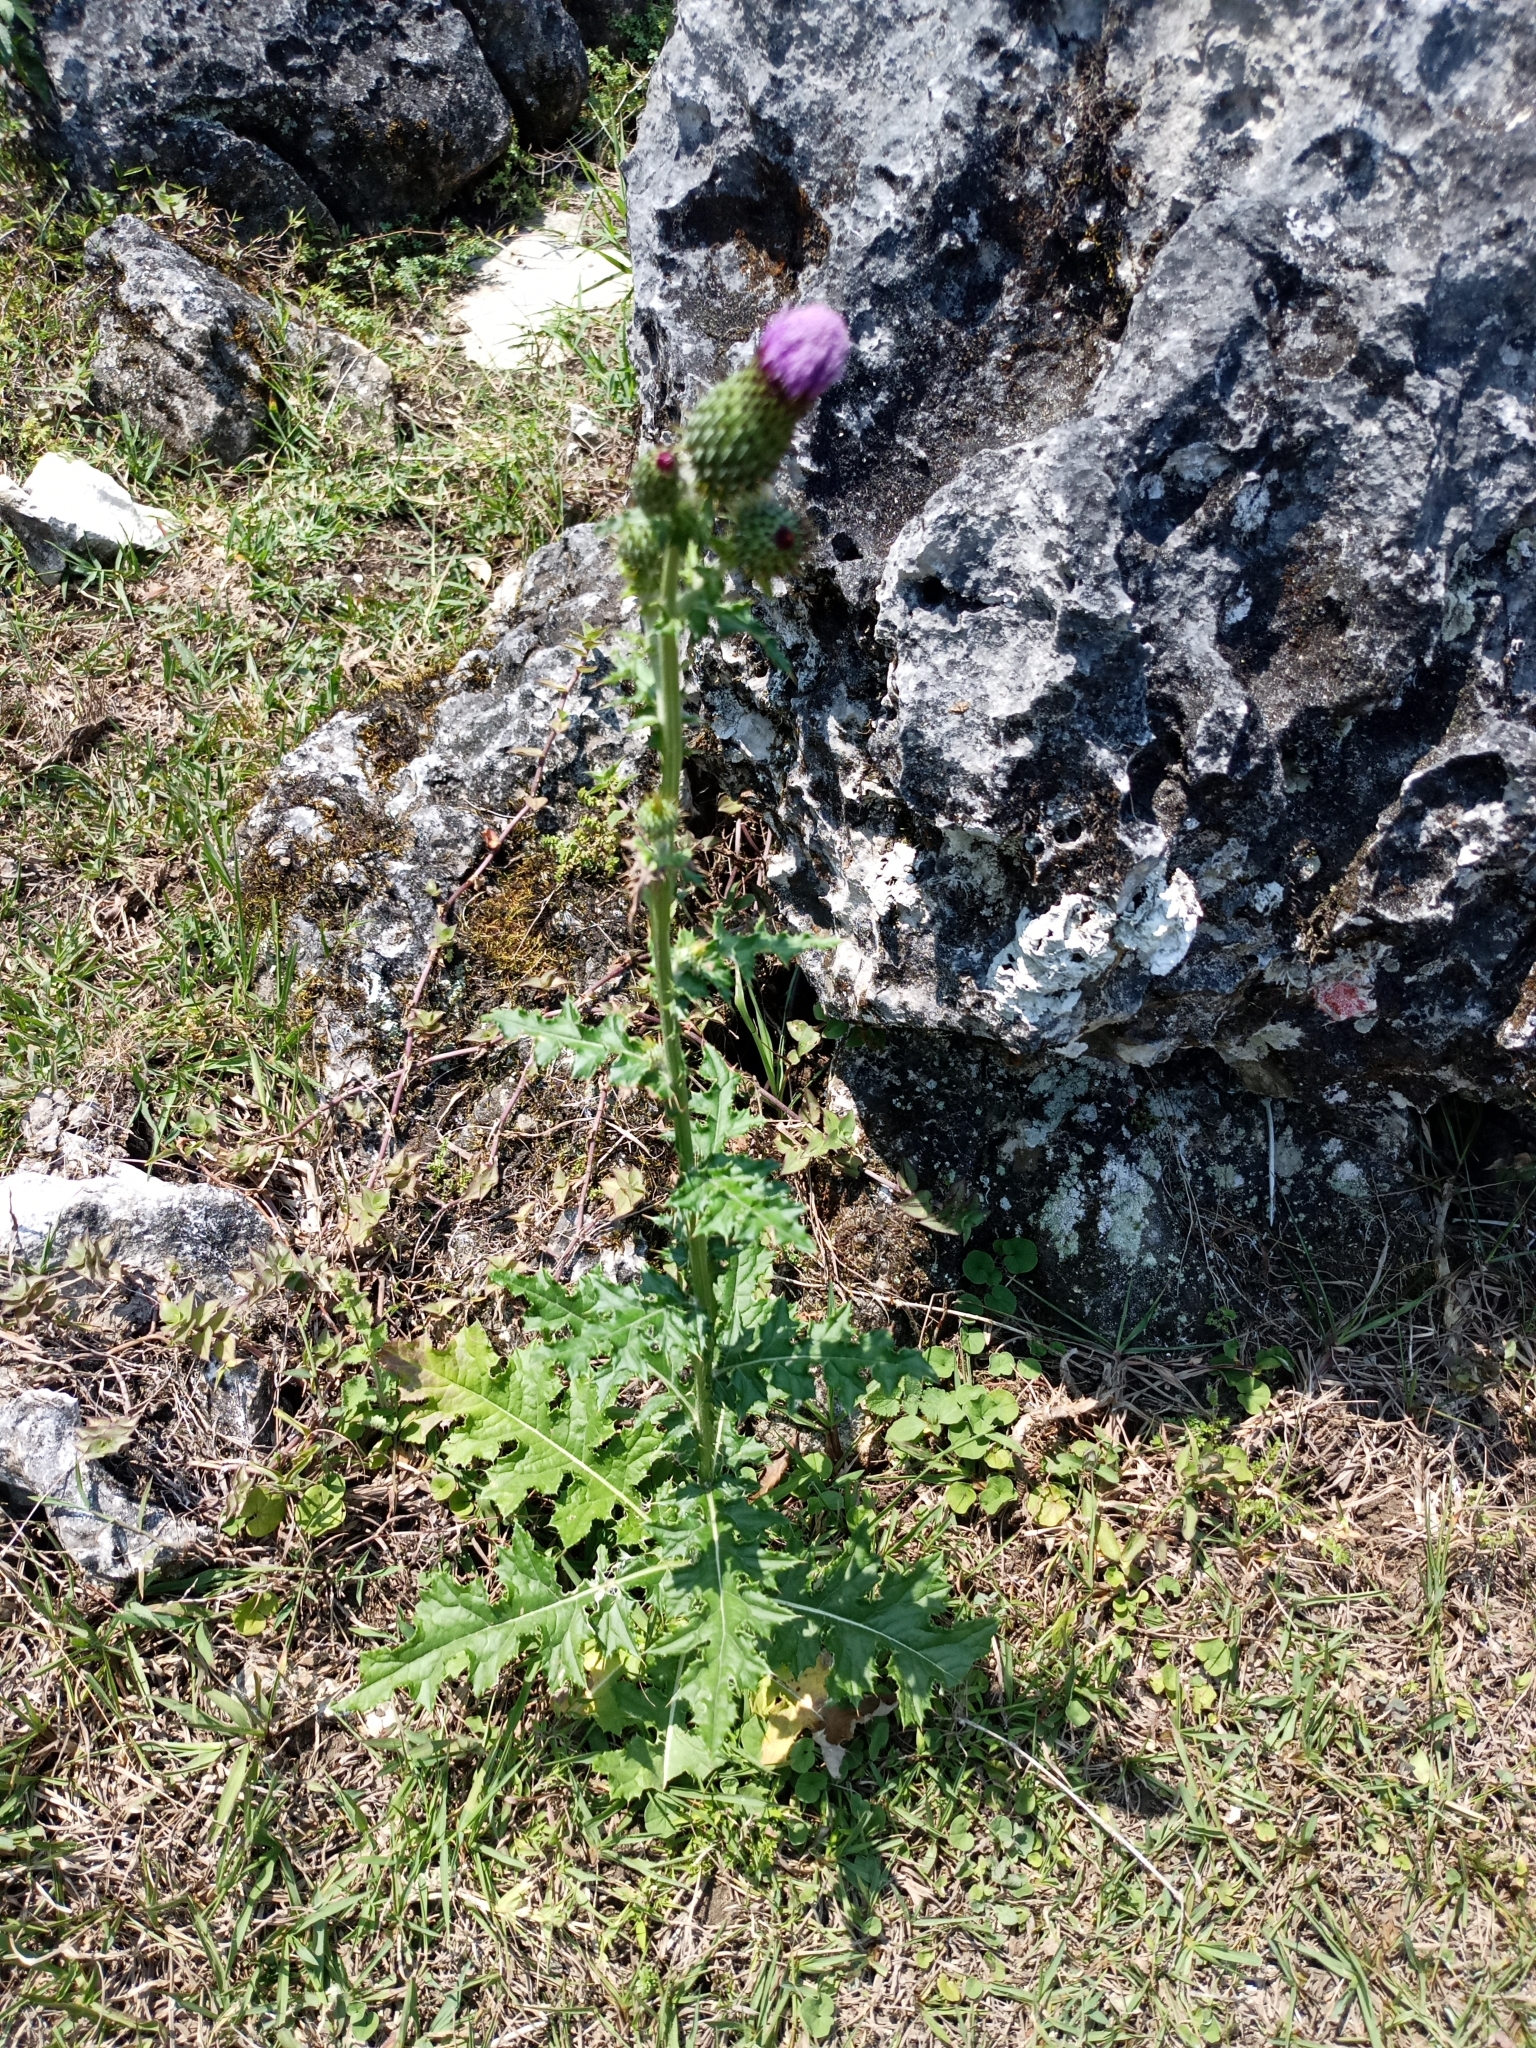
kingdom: Plantae
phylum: Tracheophyta
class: Magnoliopsida
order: Asterales
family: Asteraceae
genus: Cirsium
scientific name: Cirsium mexicanum
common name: Mexican thistle
